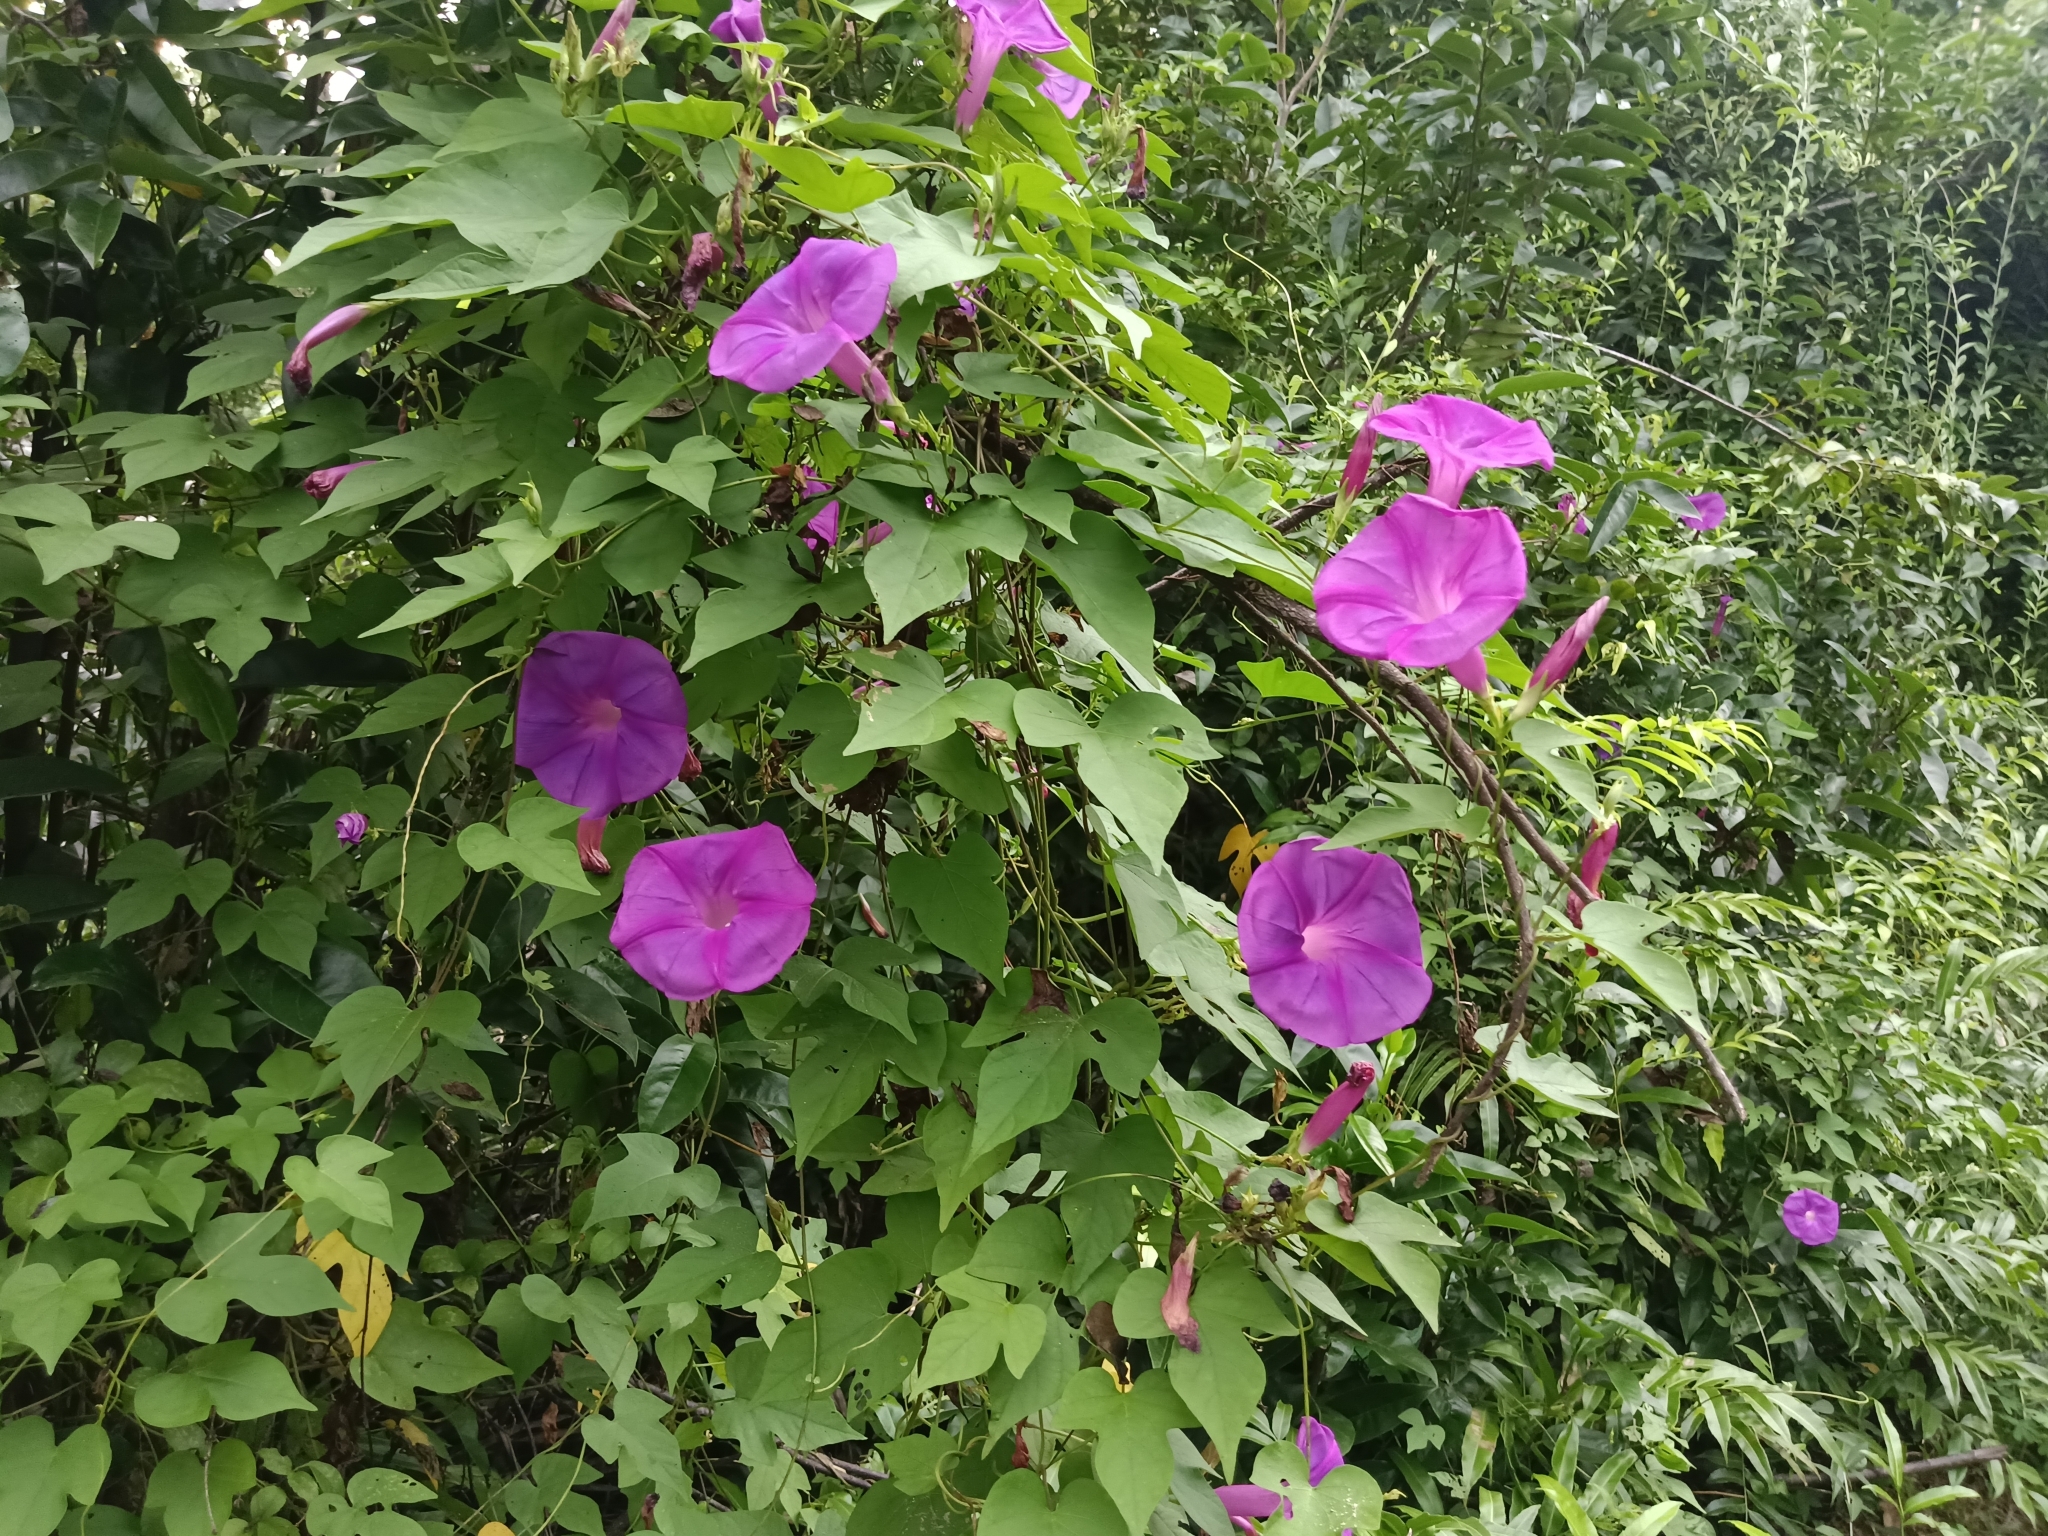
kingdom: Plantae
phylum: Tracheophyta
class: Magnoliopsida
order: Solanales
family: Convolvulaceae
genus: Ipomoea
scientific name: Ipomoea indica
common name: Blue dawnflower
